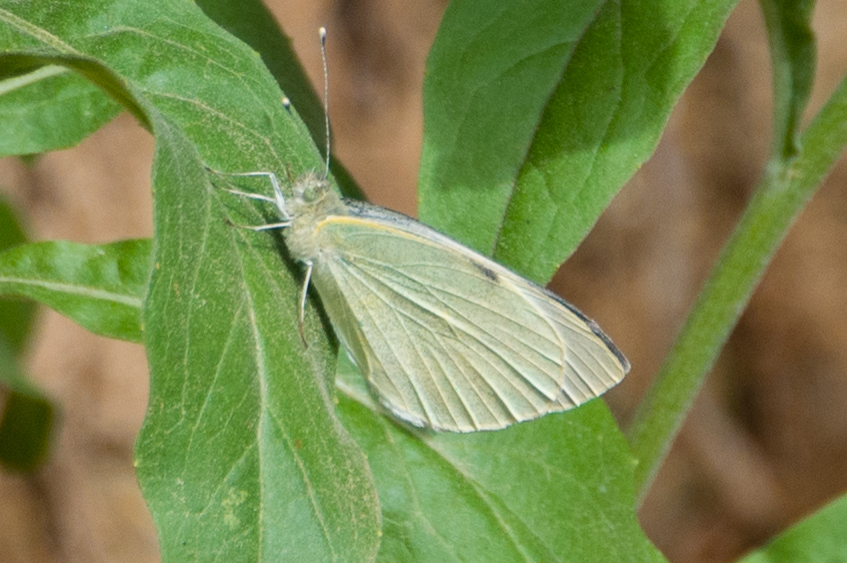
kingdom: Animalia
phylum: Arthropoda
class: Insecta
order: Lepidoptera
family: Pieridae
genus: Pieris
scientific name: Pieris brassicae
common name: Large white
